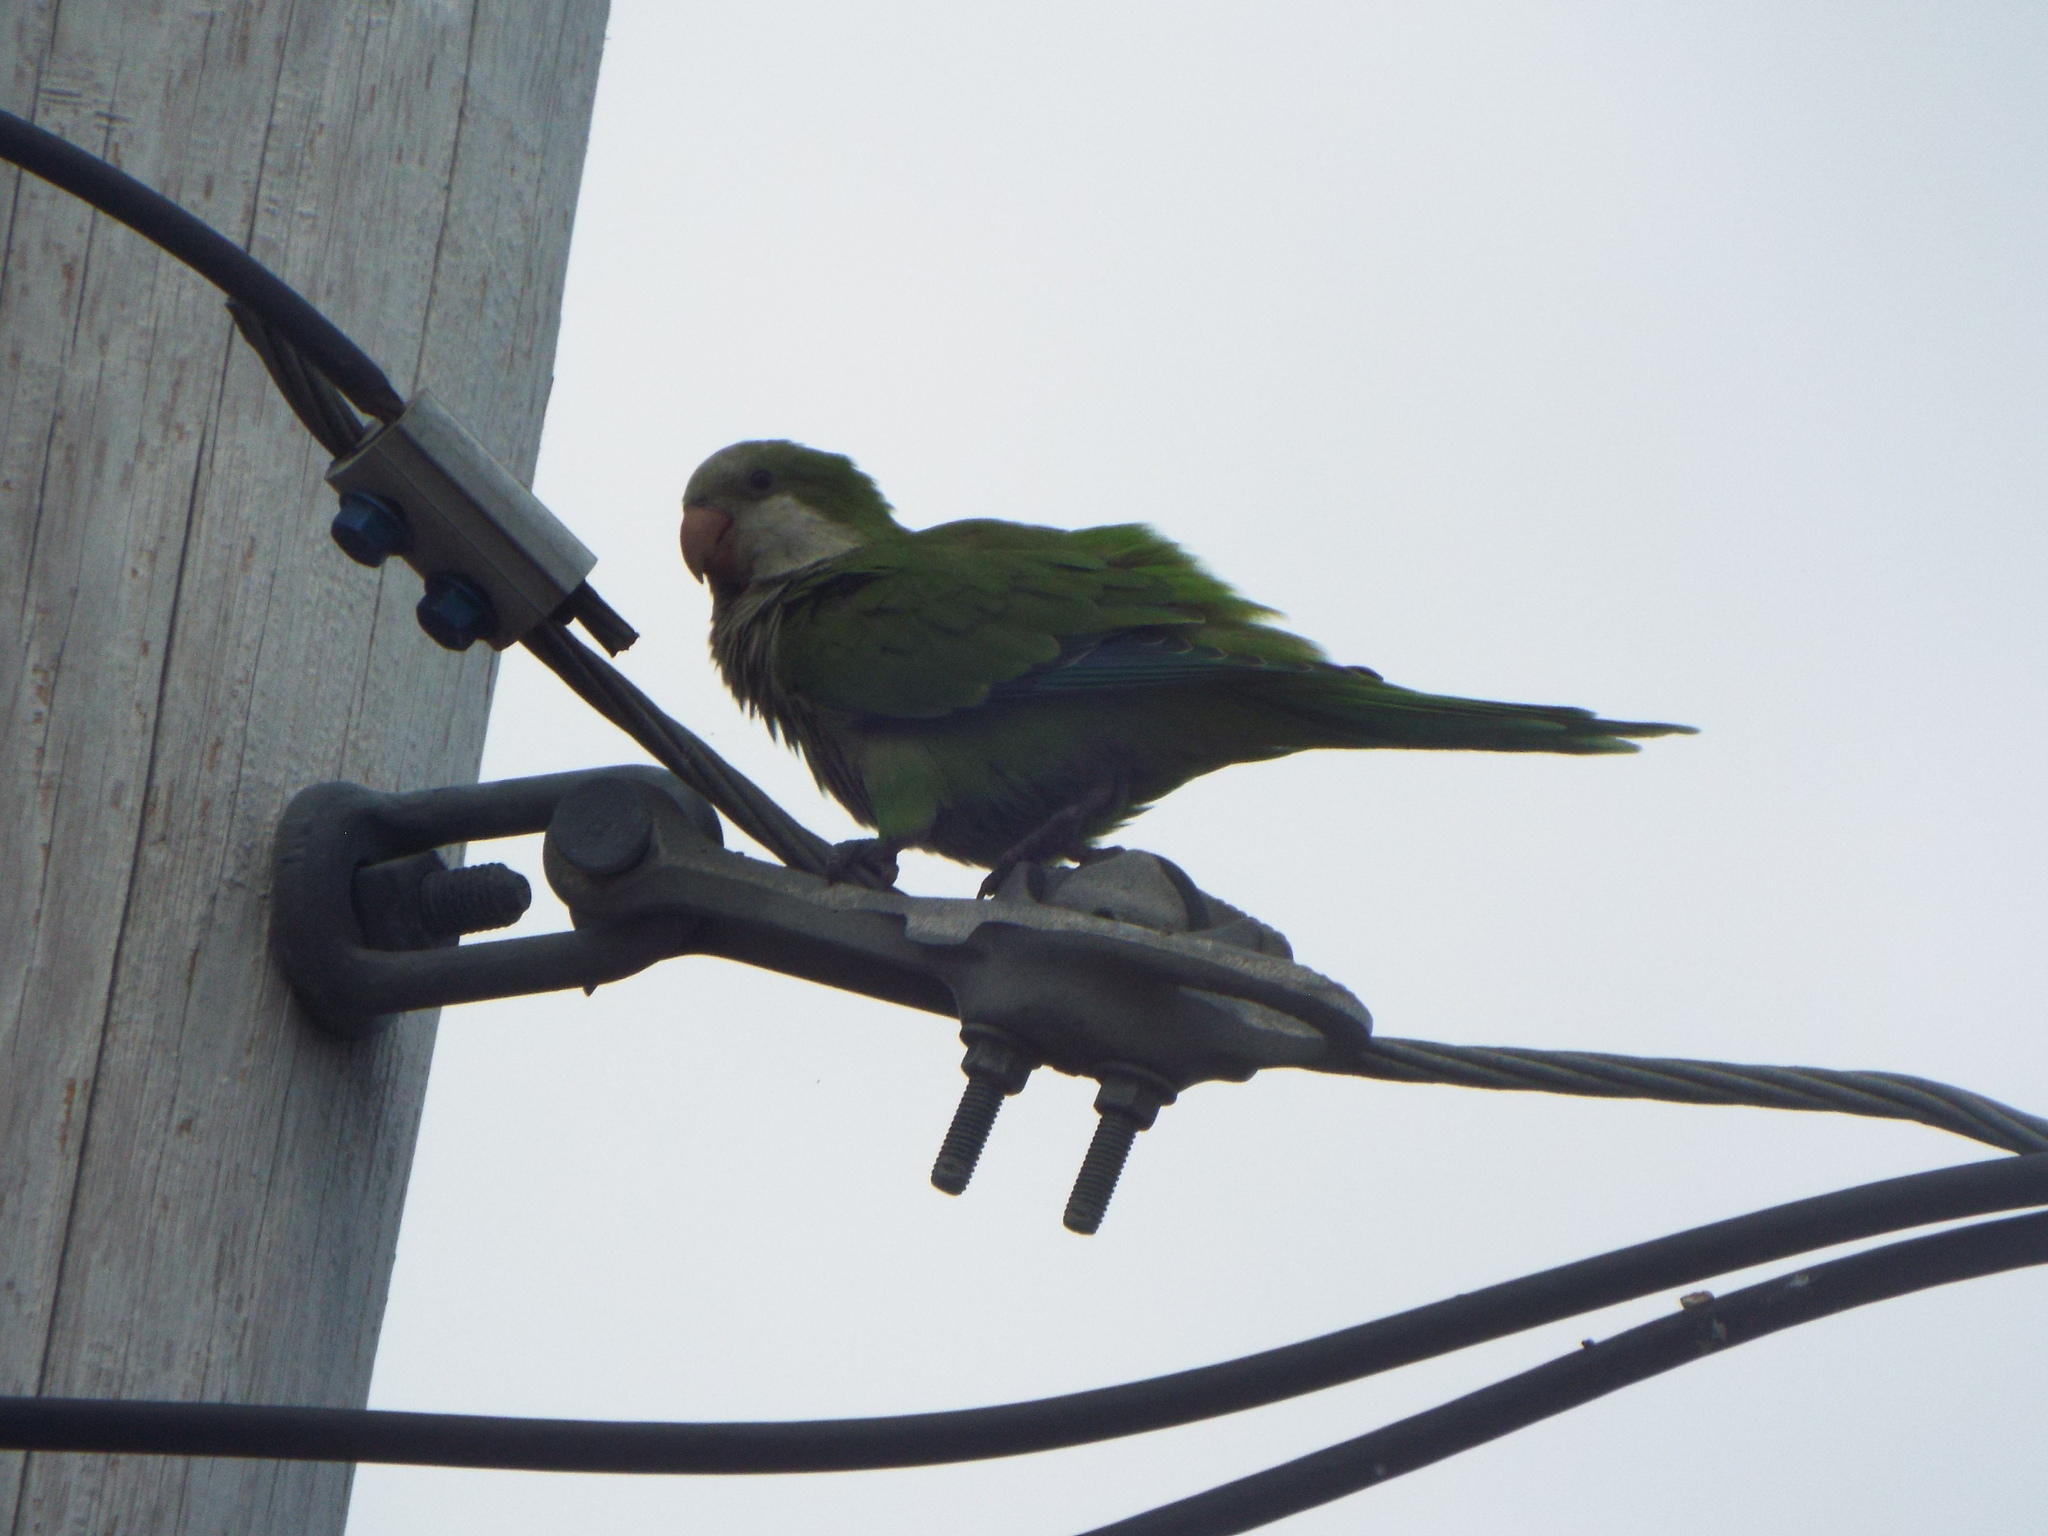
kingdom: Animalia
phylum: Chordata
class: Aves
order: Psittaciformes
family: Psittacidae
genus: Myiopsitta
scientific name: Myiopsitta monachus
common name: Monk parakeet
